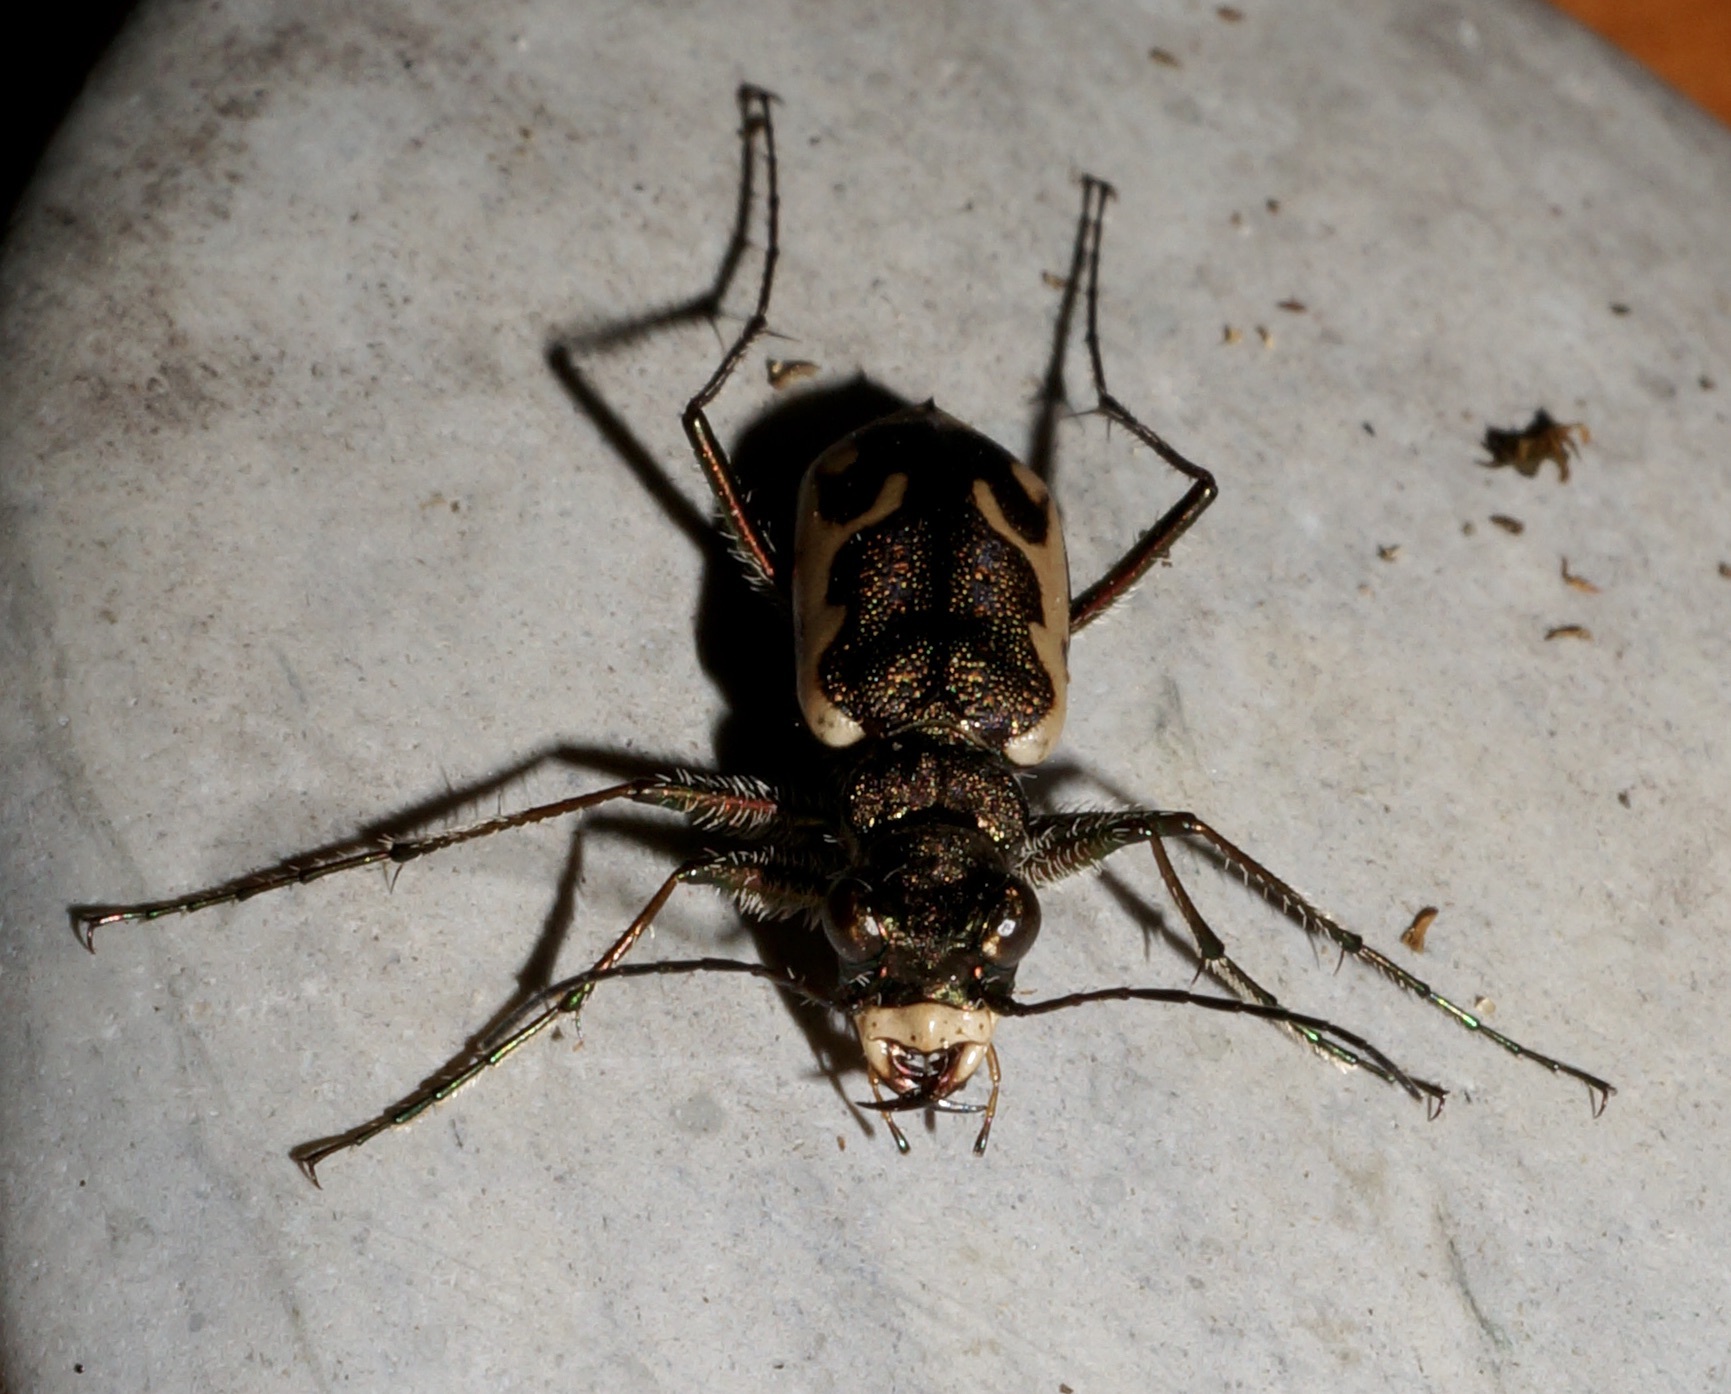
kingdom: Animalia
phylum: Arthropoda
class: Insecta
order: Coleoptera
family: Carabidae
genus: Neocicindela
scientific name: Neocicindela tuberculata
